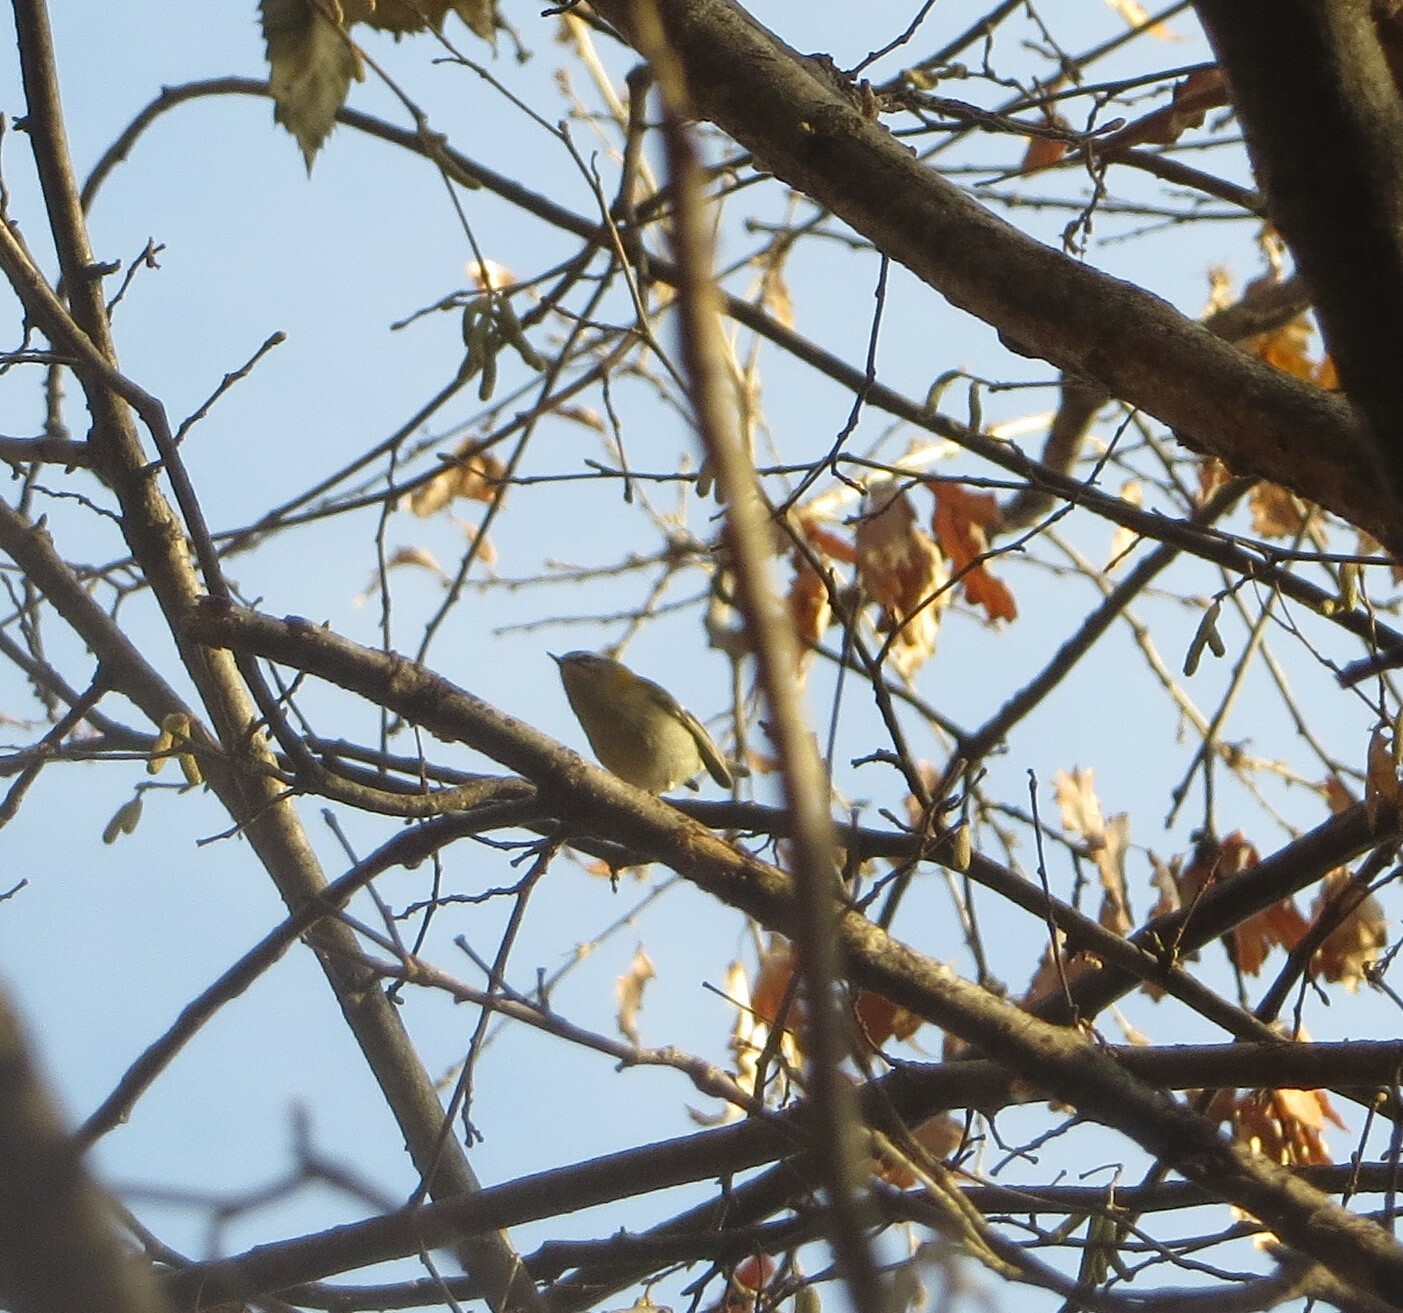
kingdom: Animalia
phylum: Chordata
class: Aves
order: Passeriformes
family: Regulidae
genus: Regulus
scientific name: Regulus ignicapilla
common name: Firecrest
